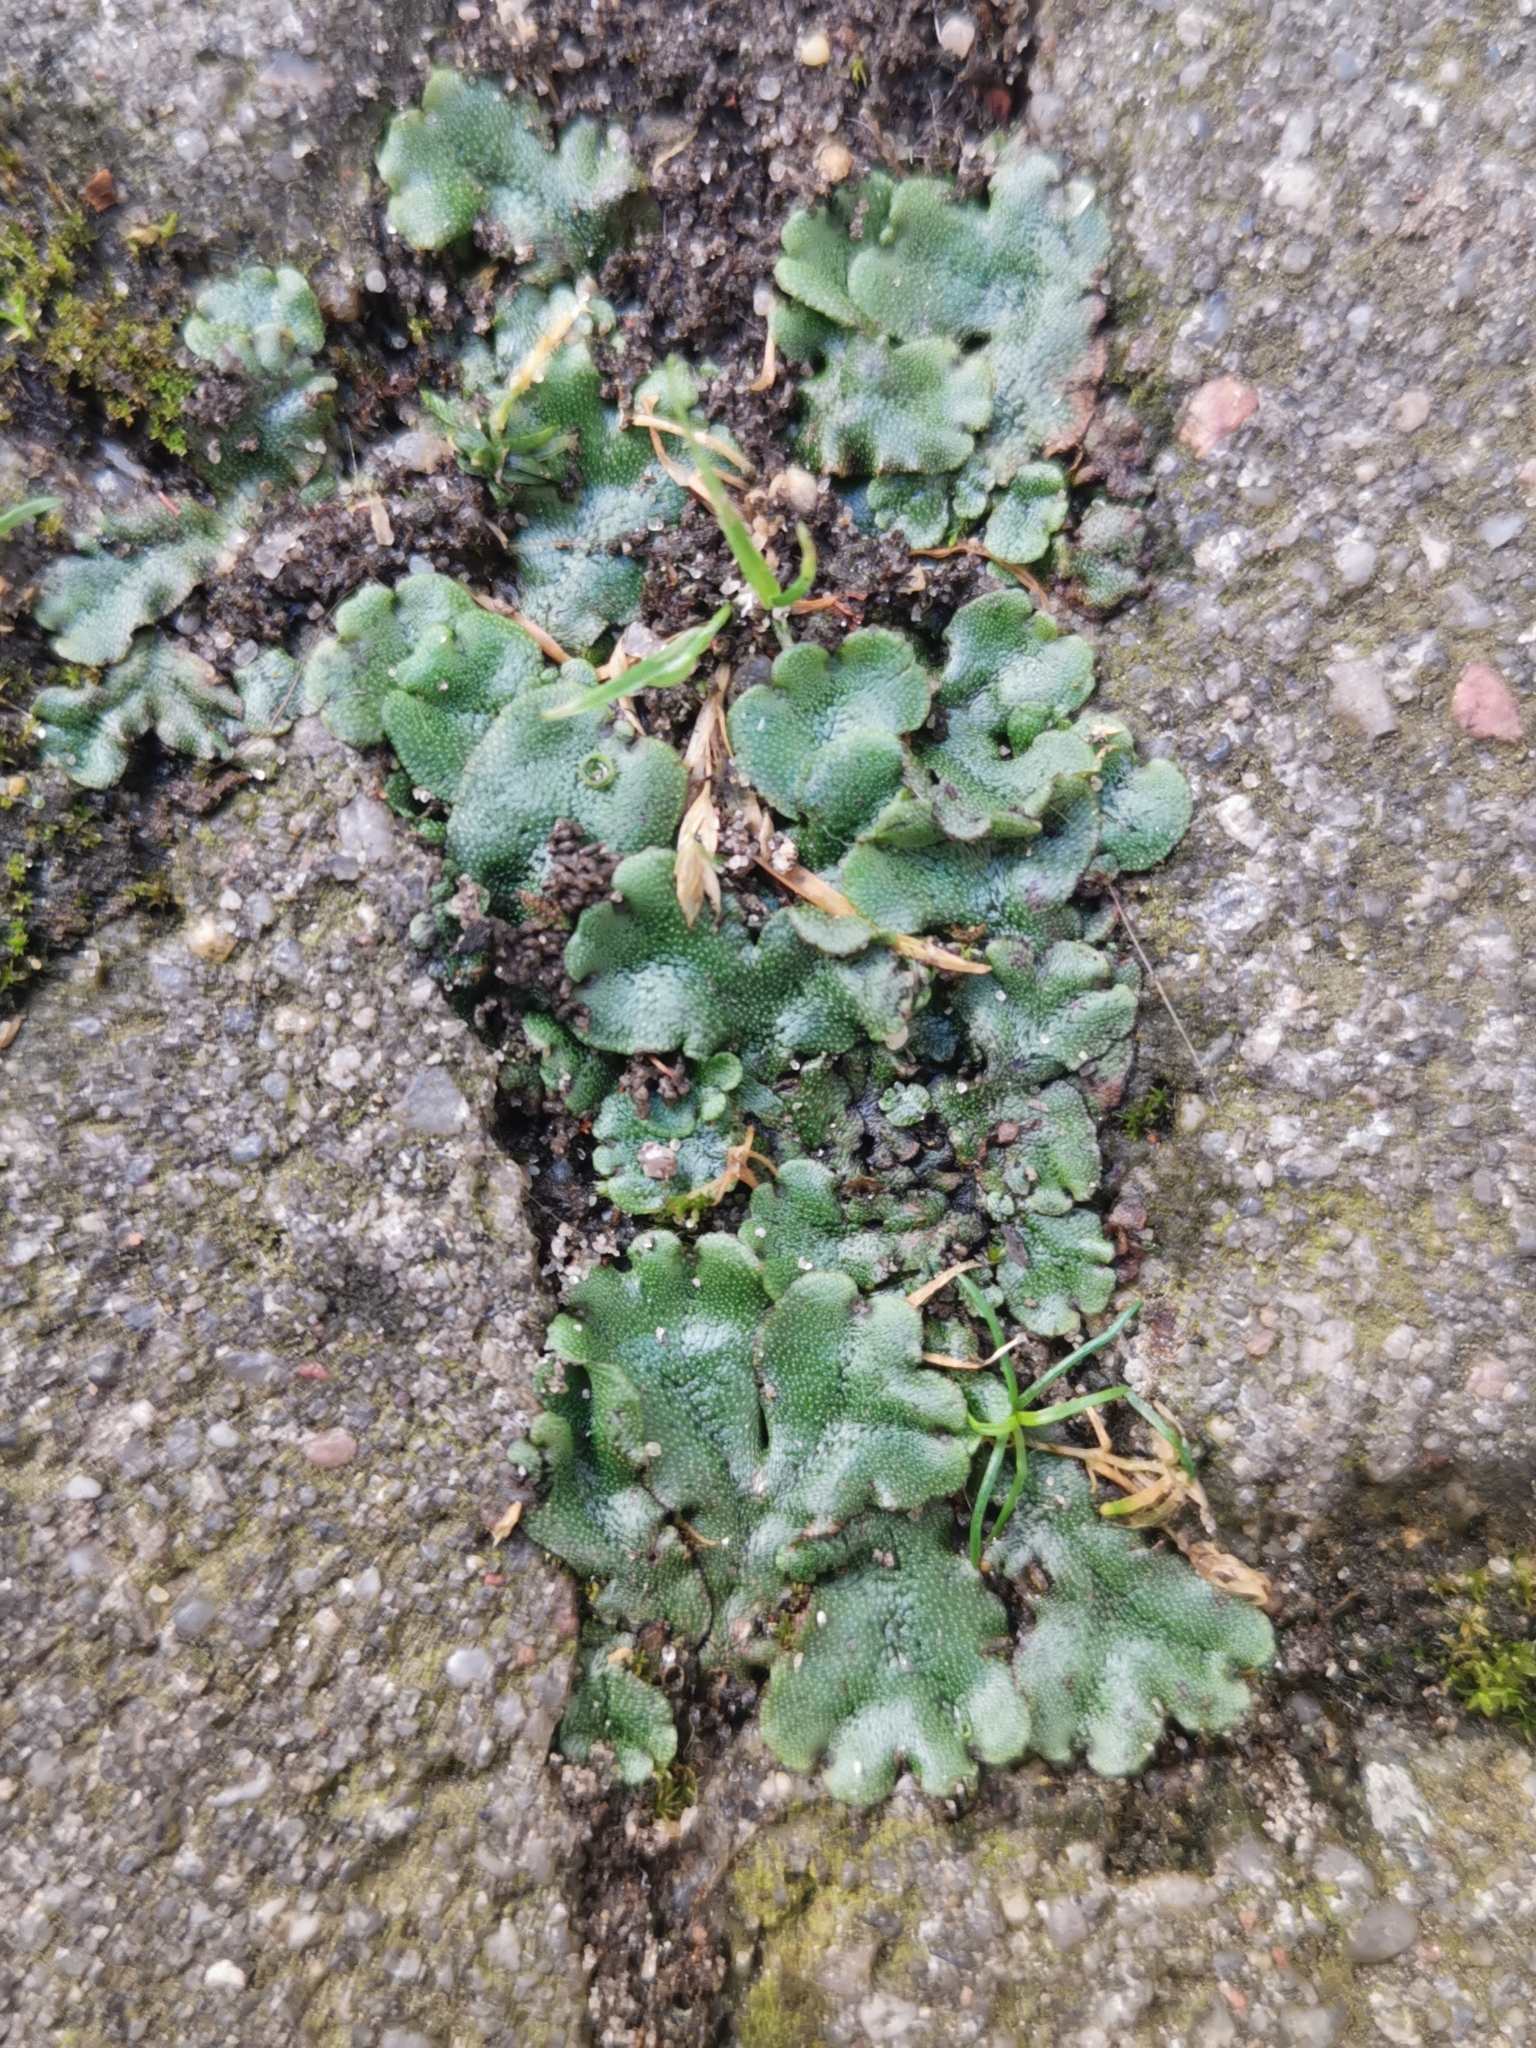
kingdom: Plantae
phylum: Marchantiophyta
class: Marchantiopsida
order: Marchantiales
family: Marchantiaceae
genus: Marchantia
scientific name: Marchantia polymorpha
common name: Common liverwort
